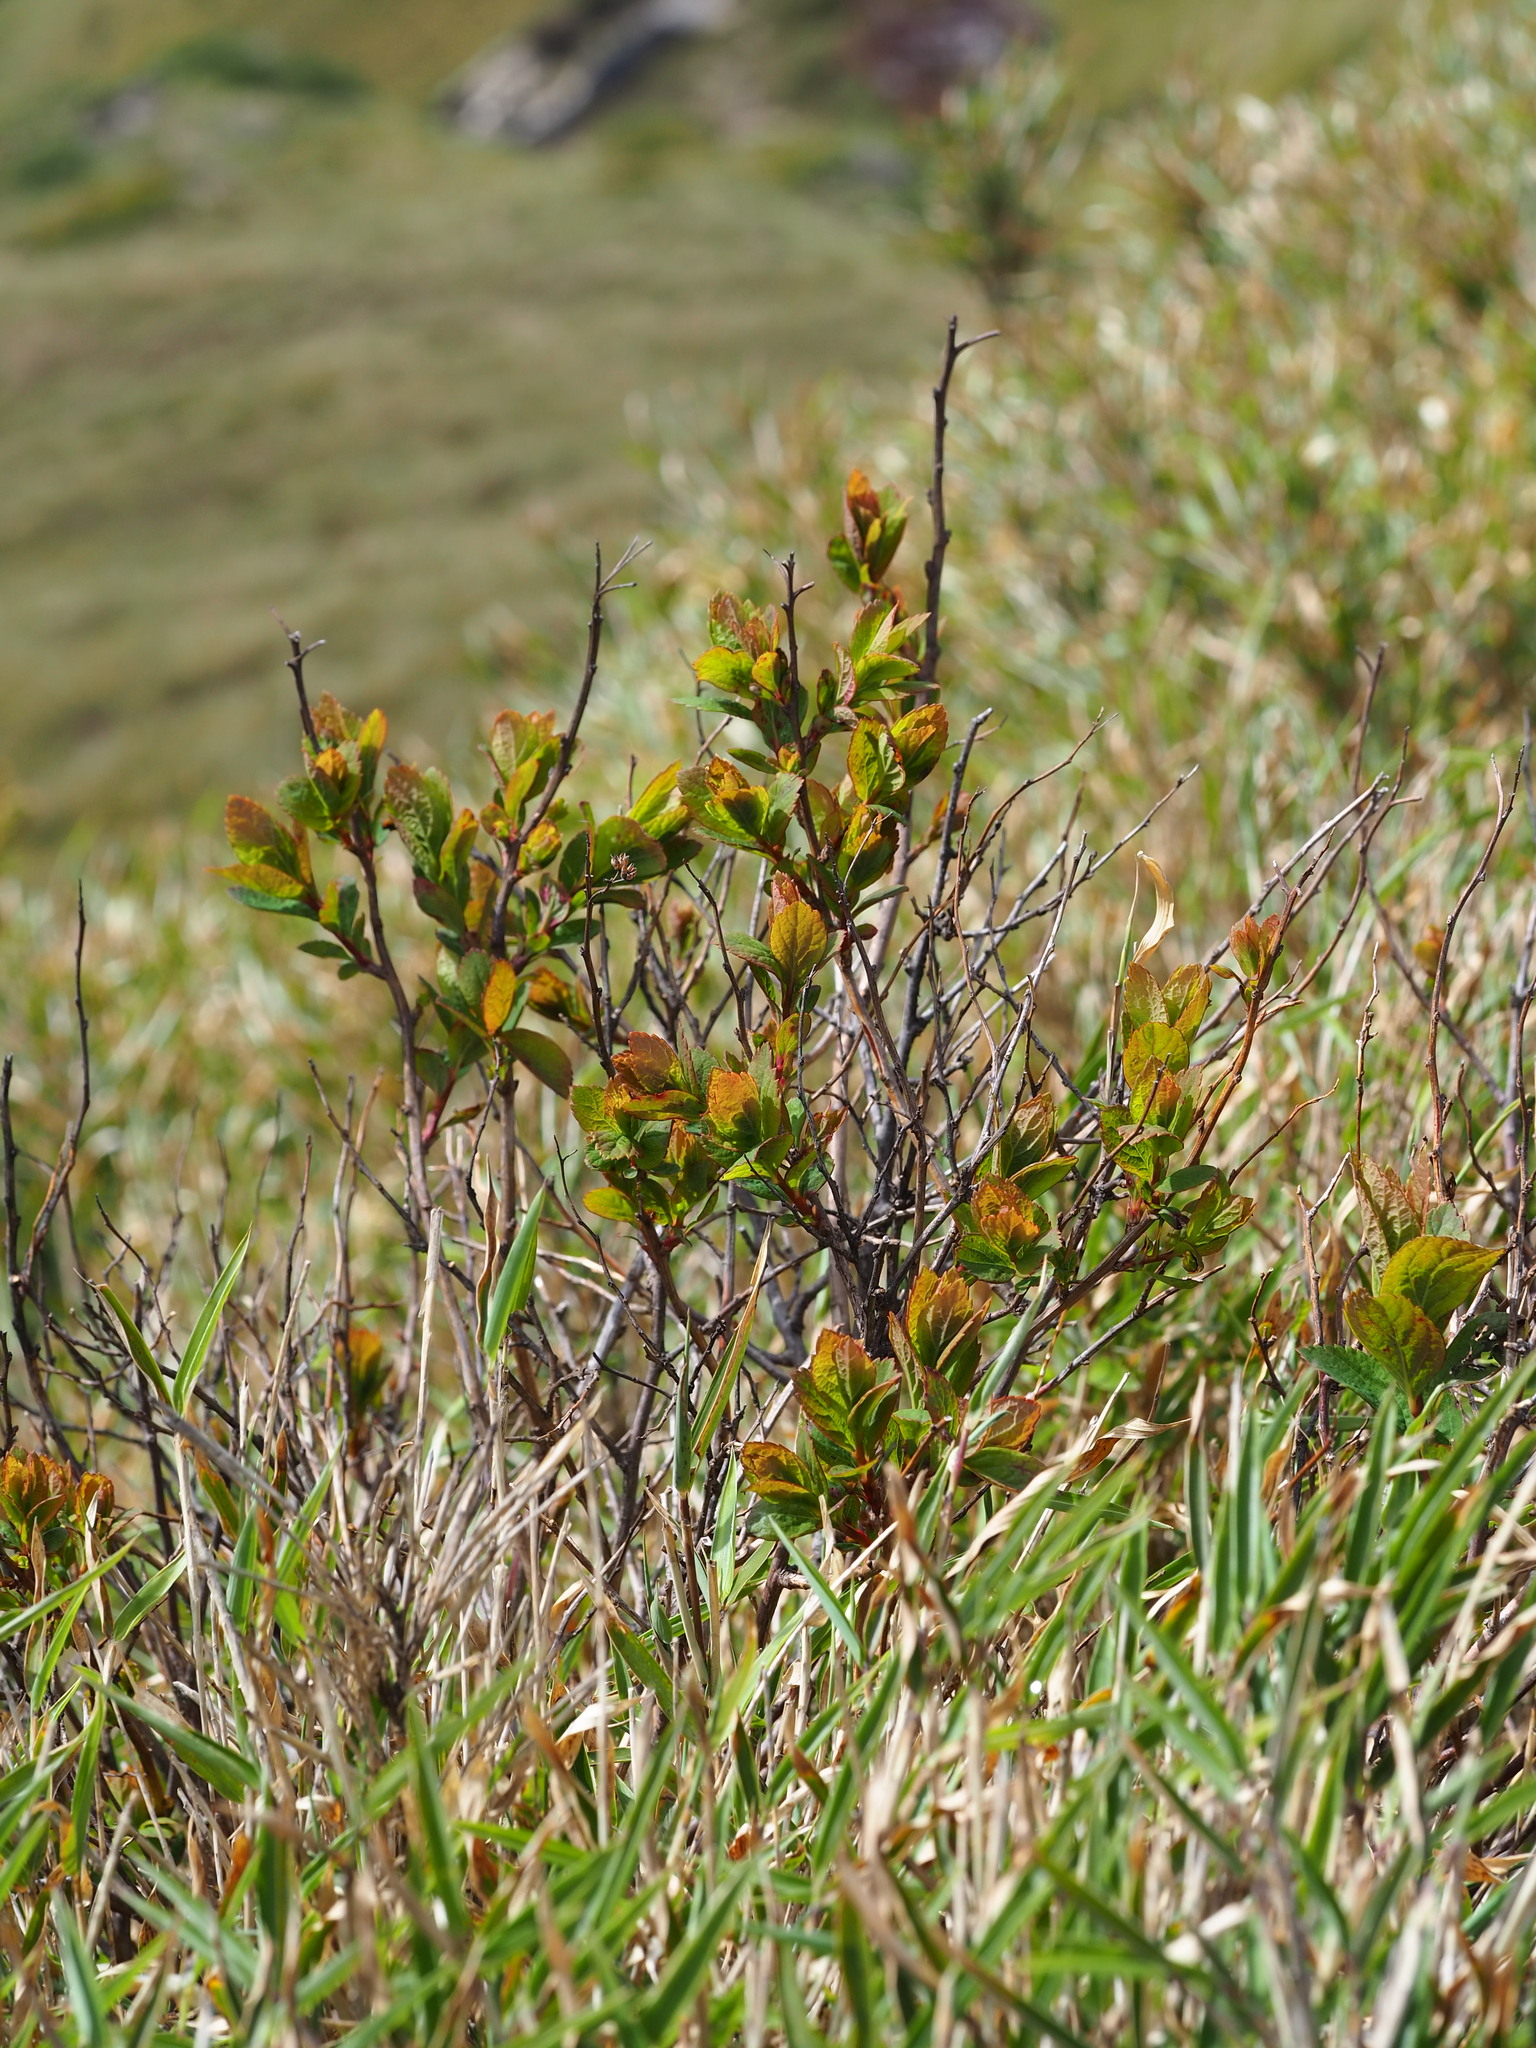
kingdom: Plantae
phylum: Tracheophyta
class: Magnoliopsida
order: Rosales
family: Rosaceae
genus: Spiraea
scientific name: Spiraea morrisonicola
